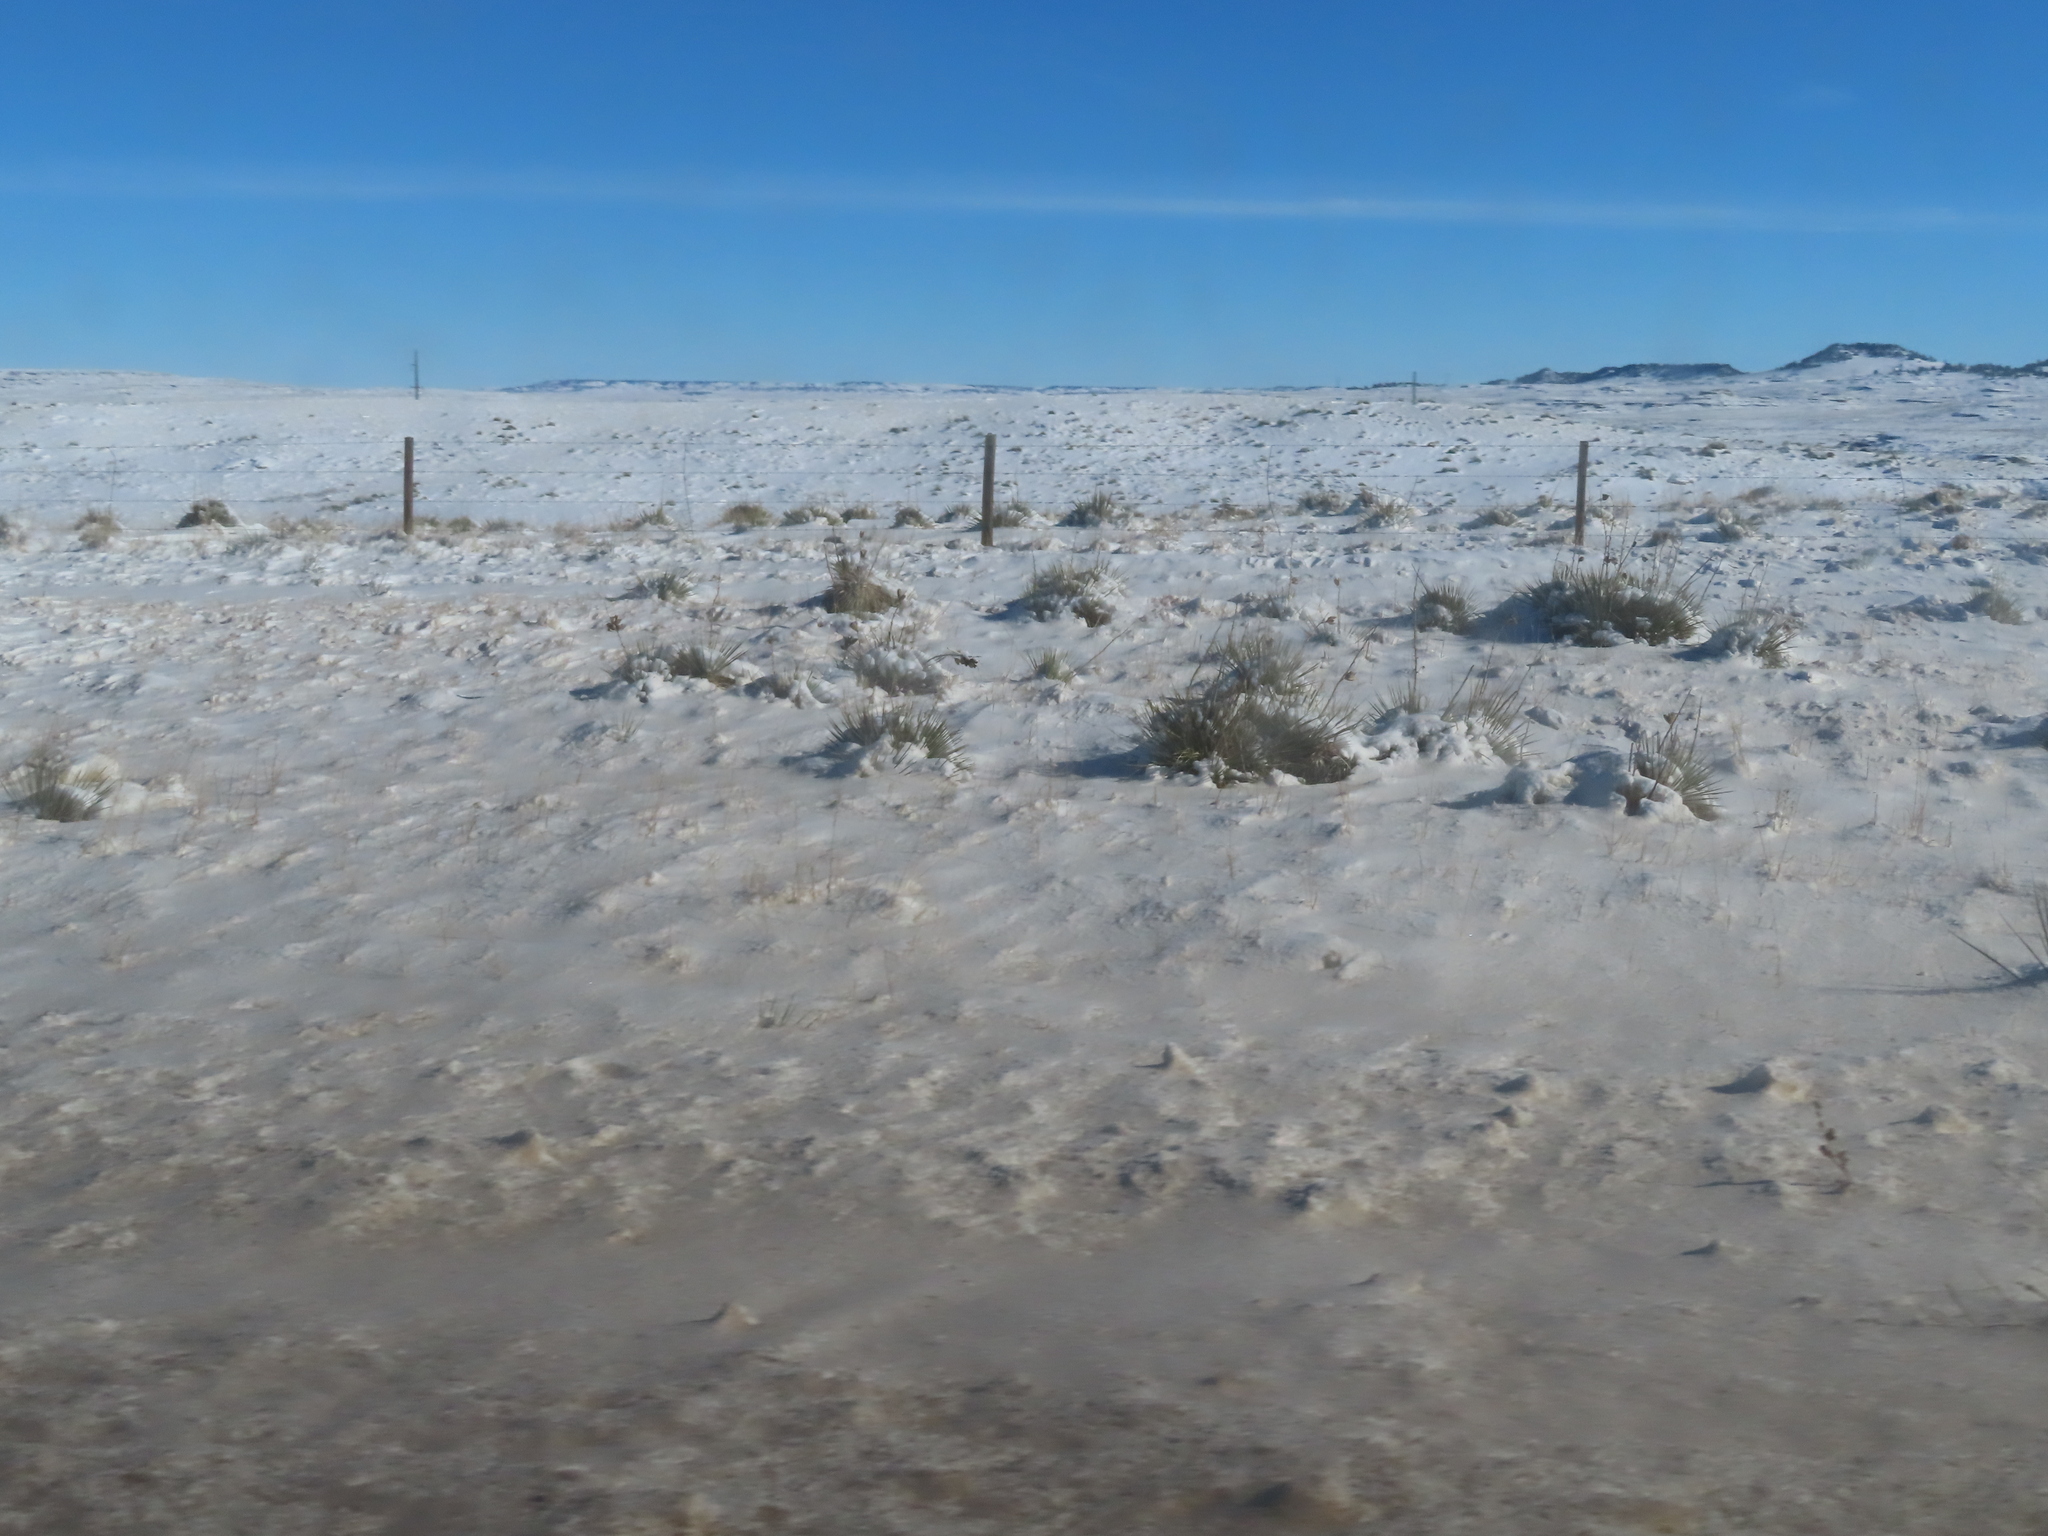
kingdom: Plantae
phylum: Tracheophyta
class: Liliopsida
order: Asparagales
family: Asparagaceae
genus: Yucca
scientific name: Yucca glauca
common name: Great plains yucca
